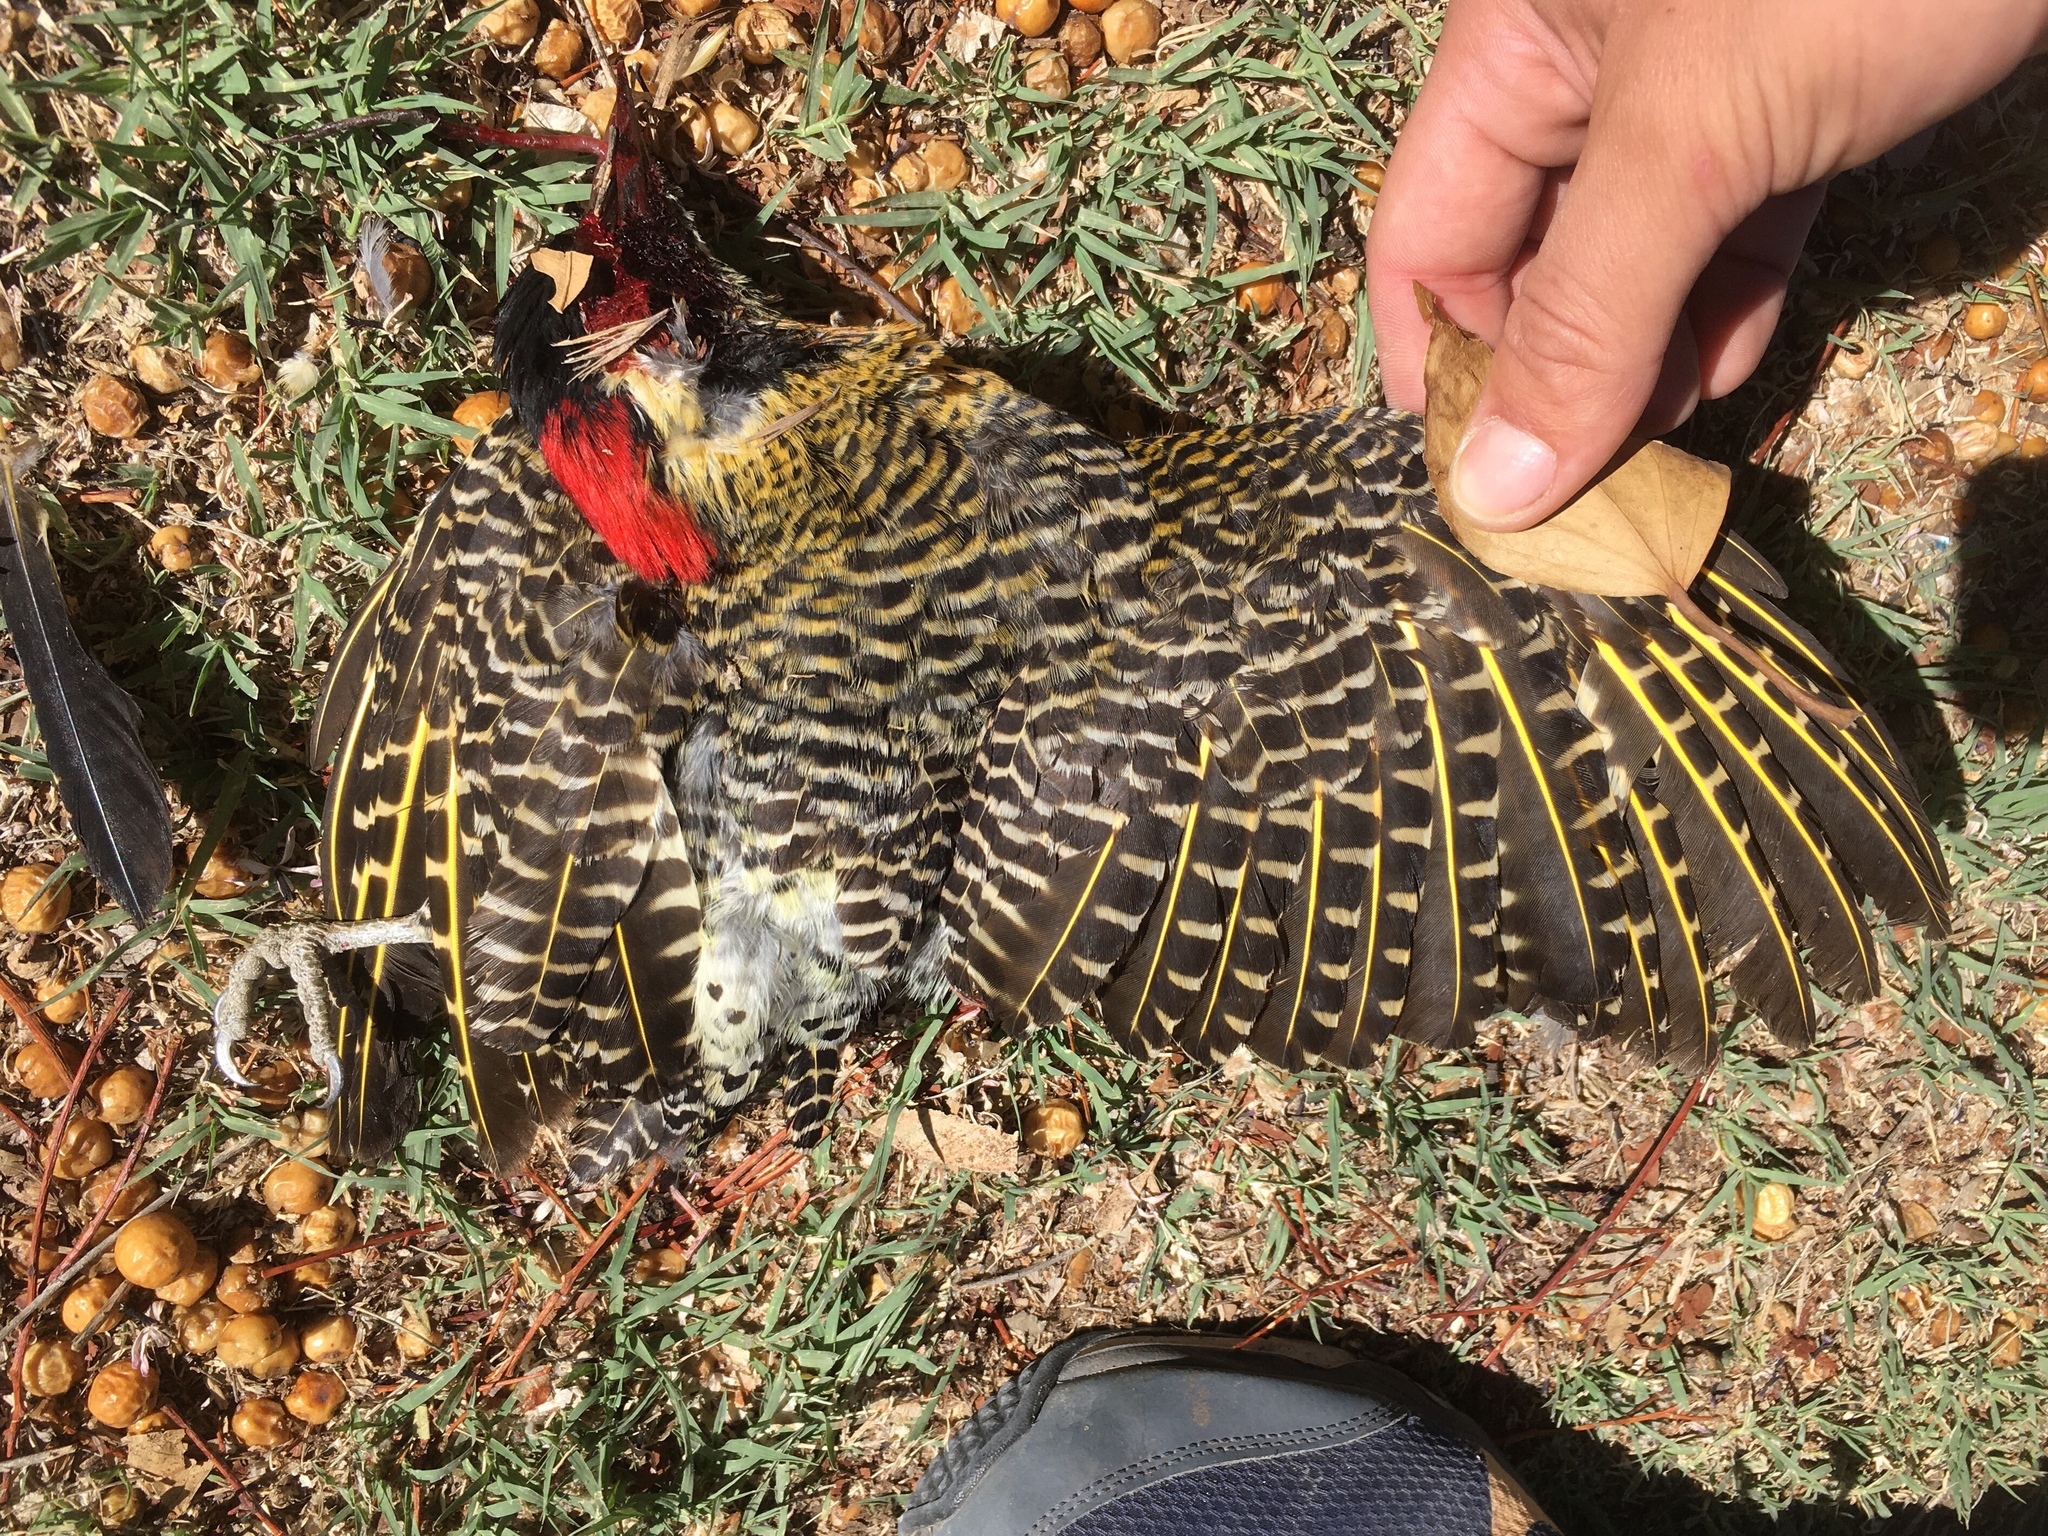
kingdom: Animalia
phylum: Chordata
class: Aves
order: Piciformes
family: Picidae
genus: Colaptes
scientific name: Colaptes melanochloros
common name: Green-barred woodpecker
